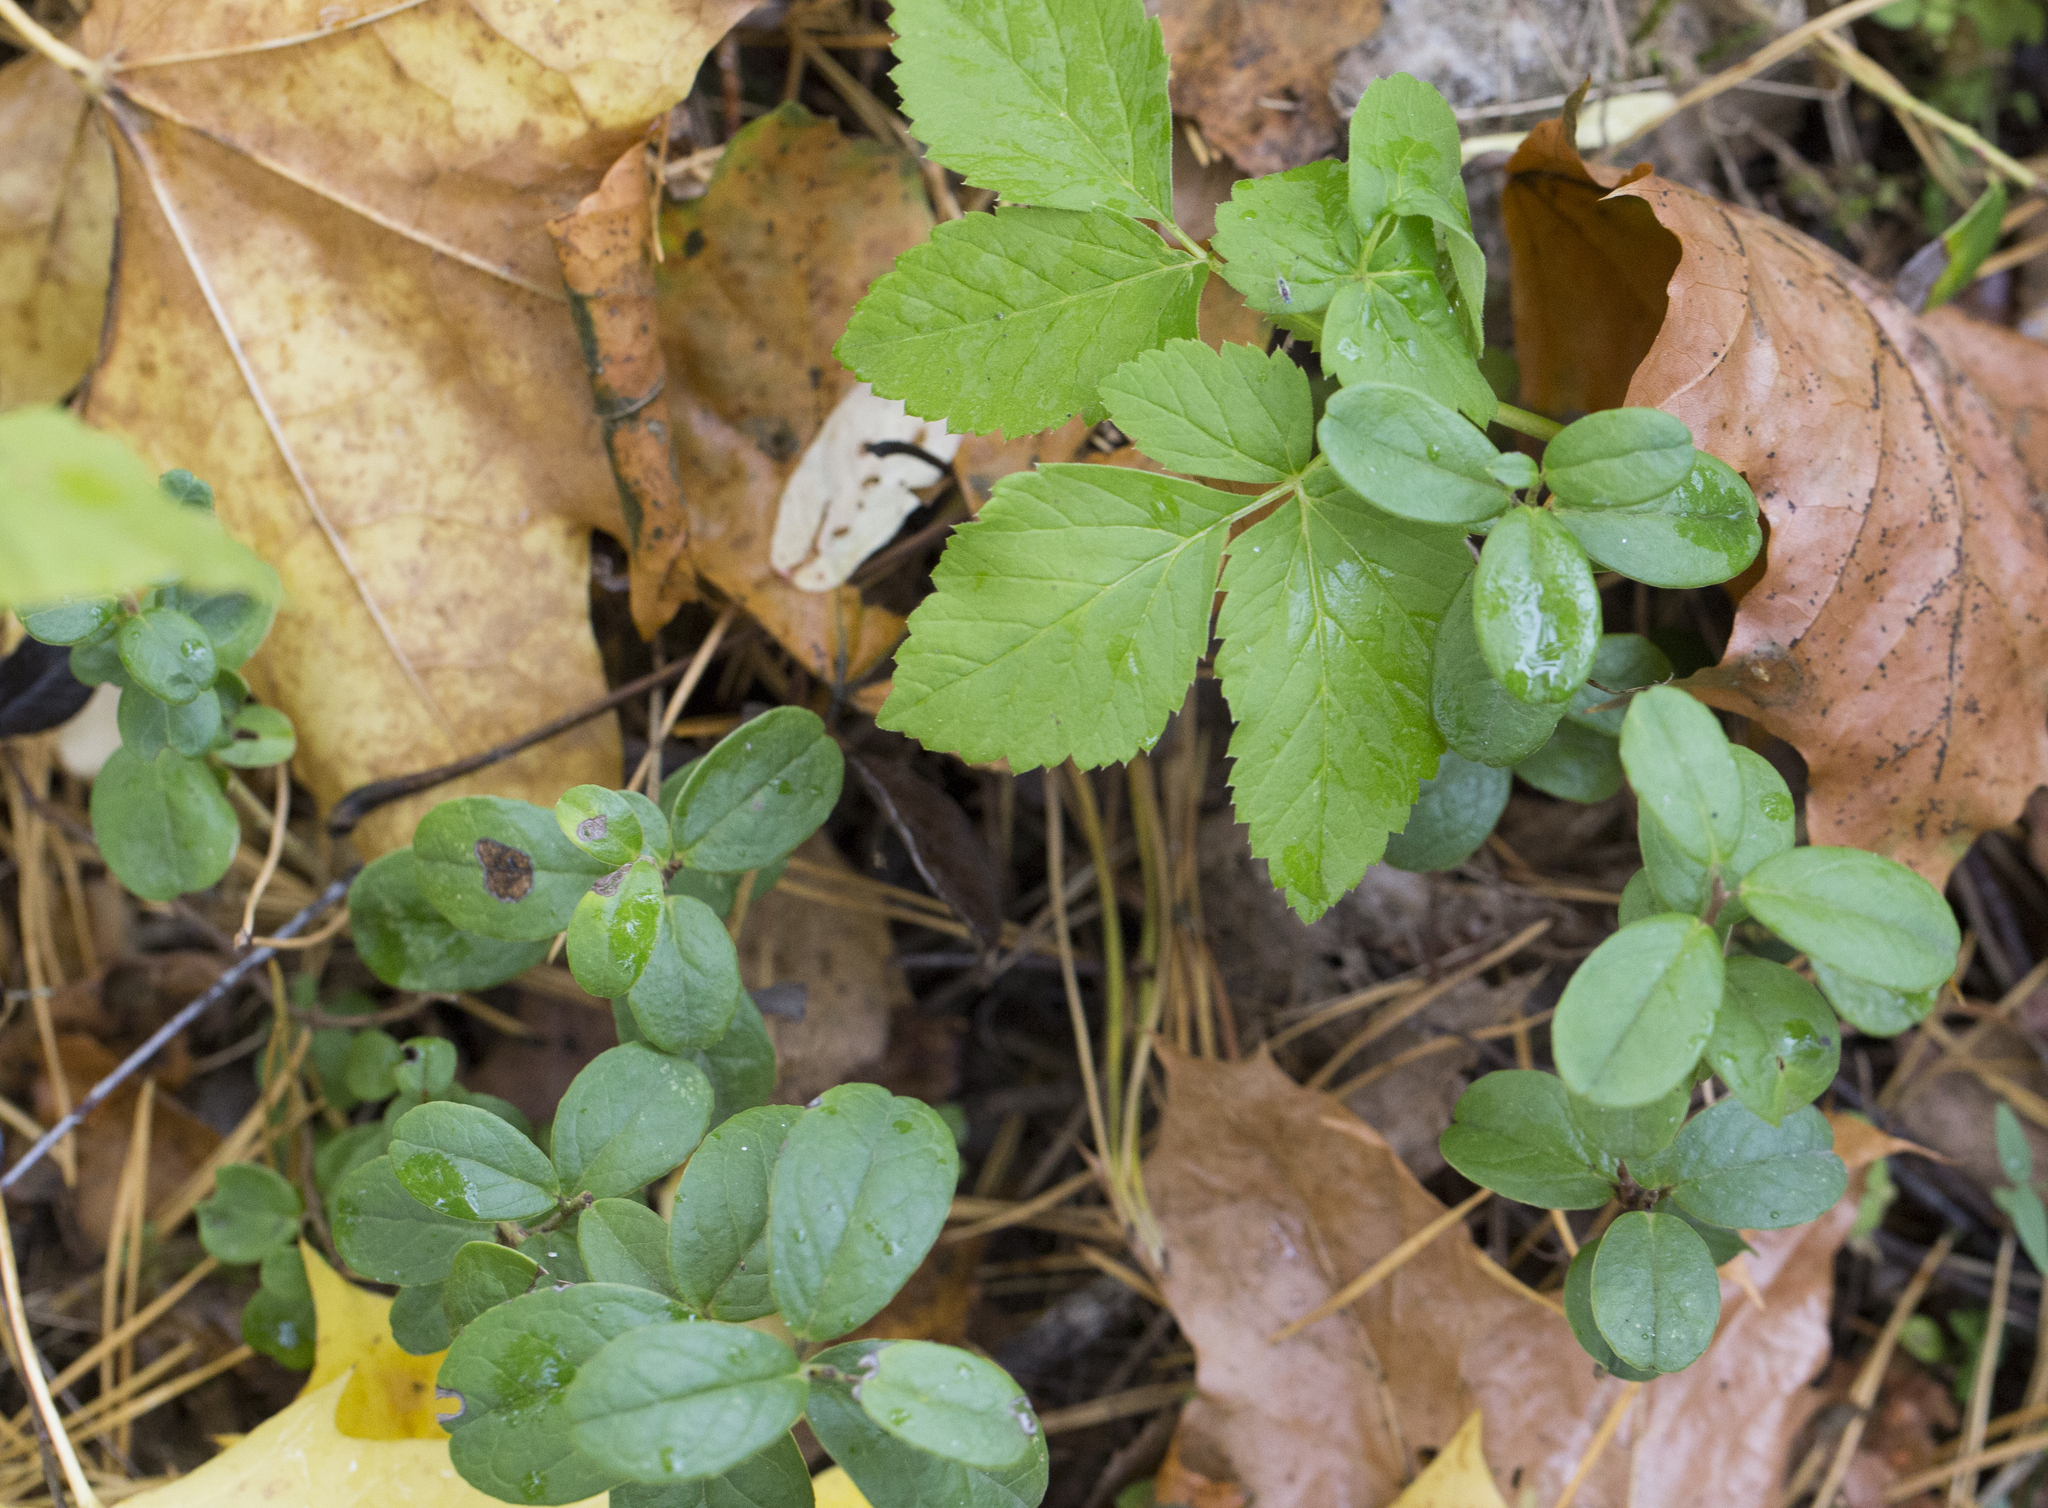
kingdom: Plantae
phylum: Tracheophyta
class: Magnoliopsida
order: Ericales
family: Ericaceae
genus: Vaccinium
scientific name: Vaccinium vitis-idaea
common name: Cowberry
